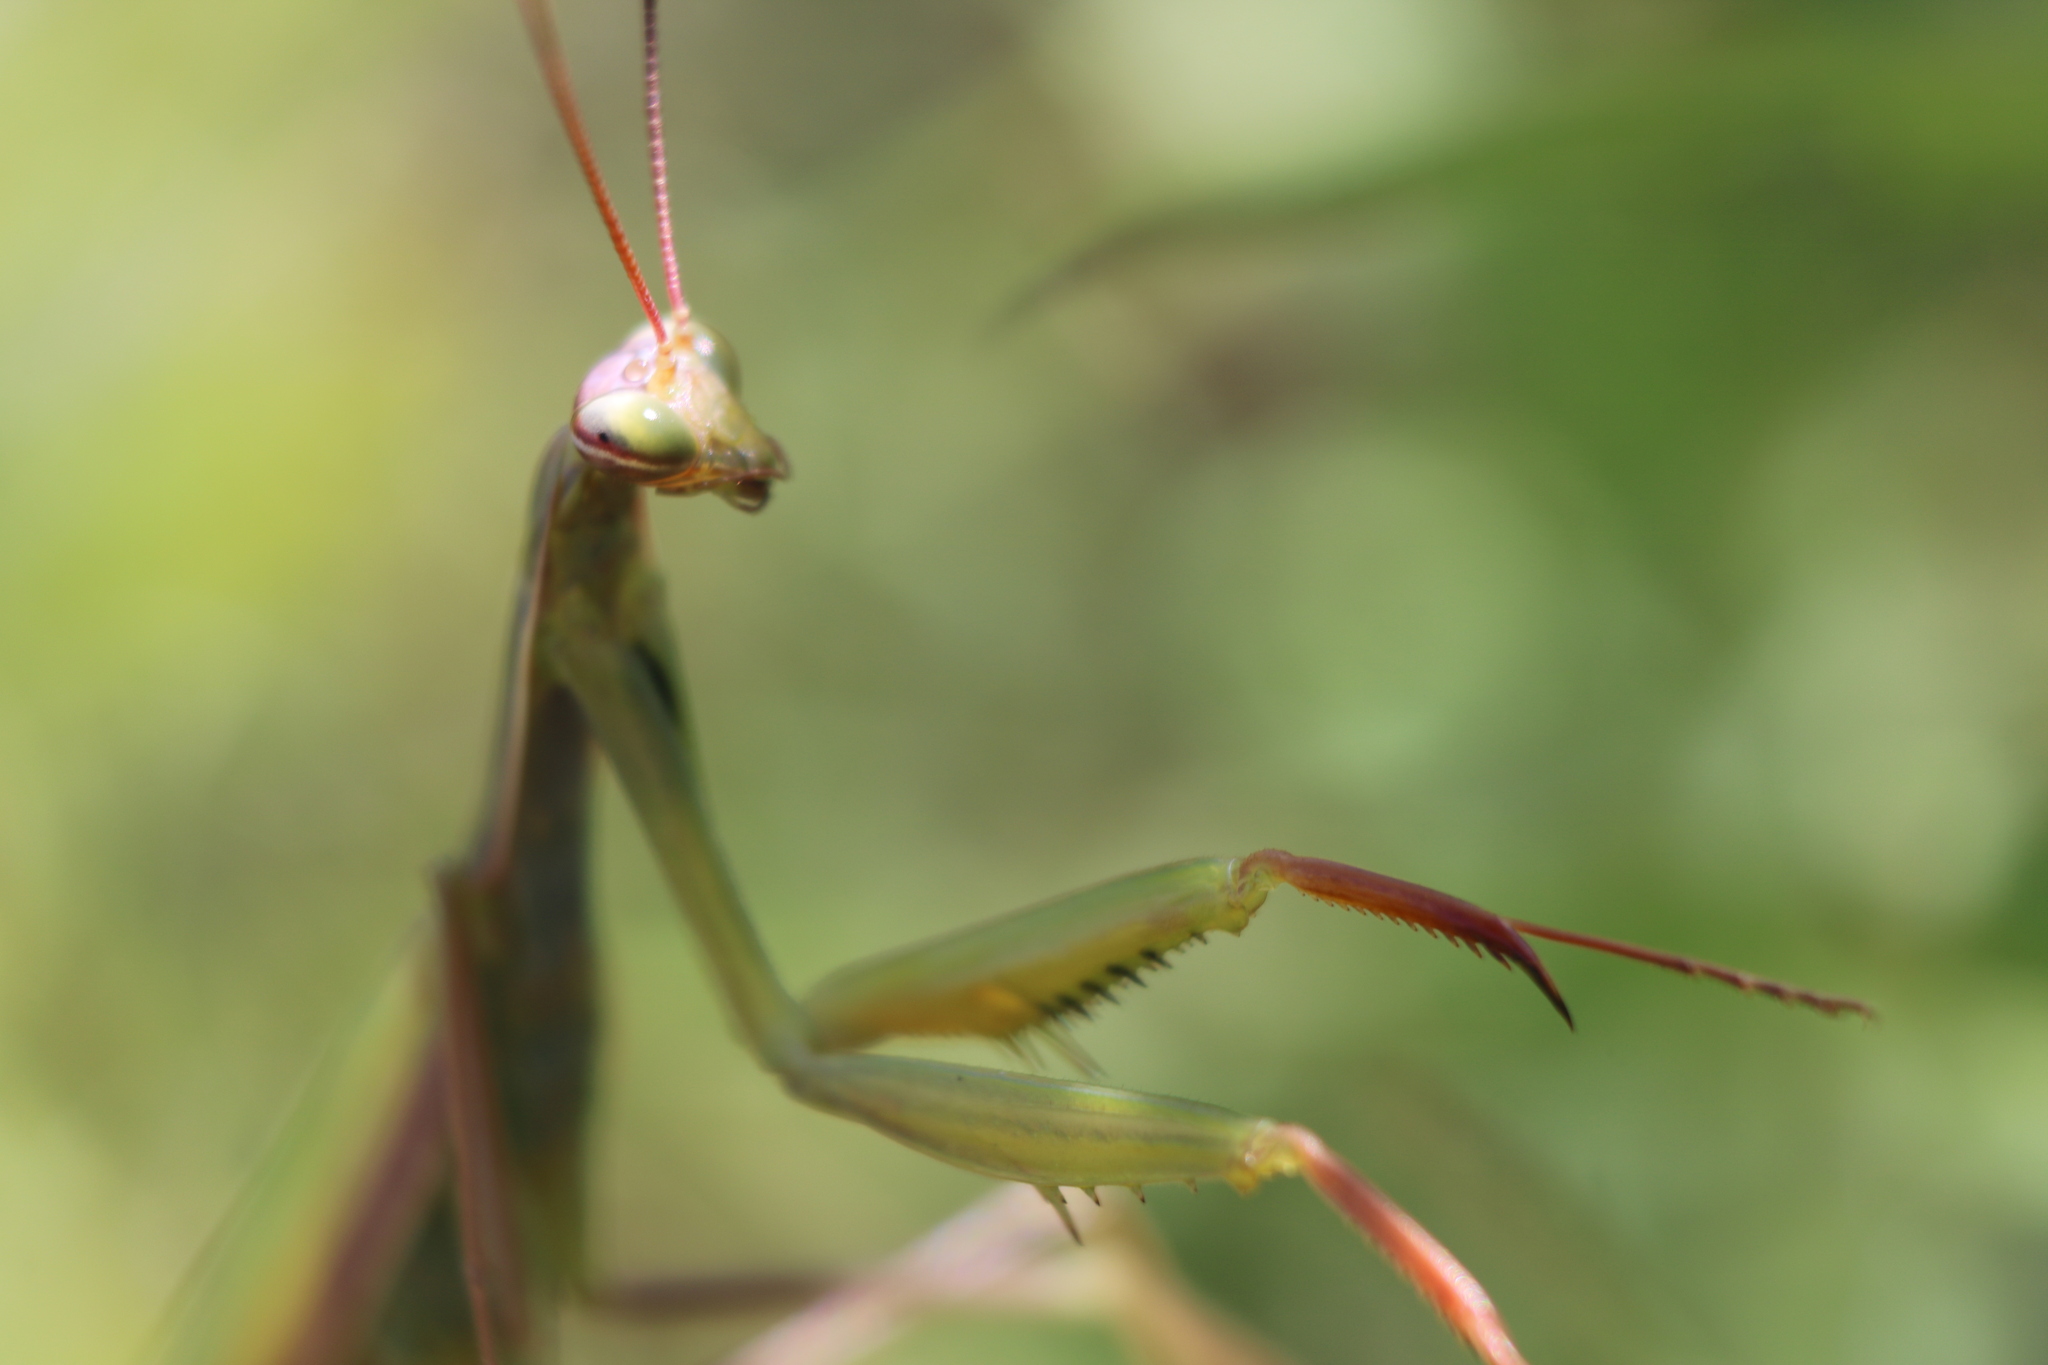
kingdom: Animalia
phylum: Arthropoda
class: Insecta
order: Mantodea
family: Mantidae
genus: Mantis
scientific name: Mantis religiosa
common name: Praying mantis
